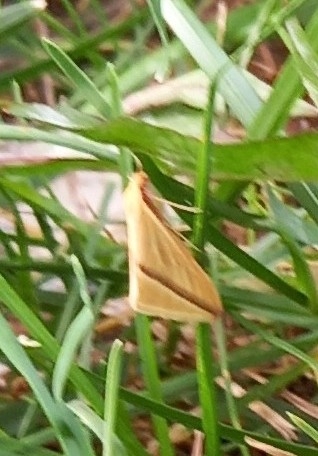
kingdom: Animalia
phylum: Arthropoda
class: Insecta
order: Lepidoptera
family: Geometridae
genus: Rhodometra
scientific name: Rhodometra sacraria
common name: Vestal
